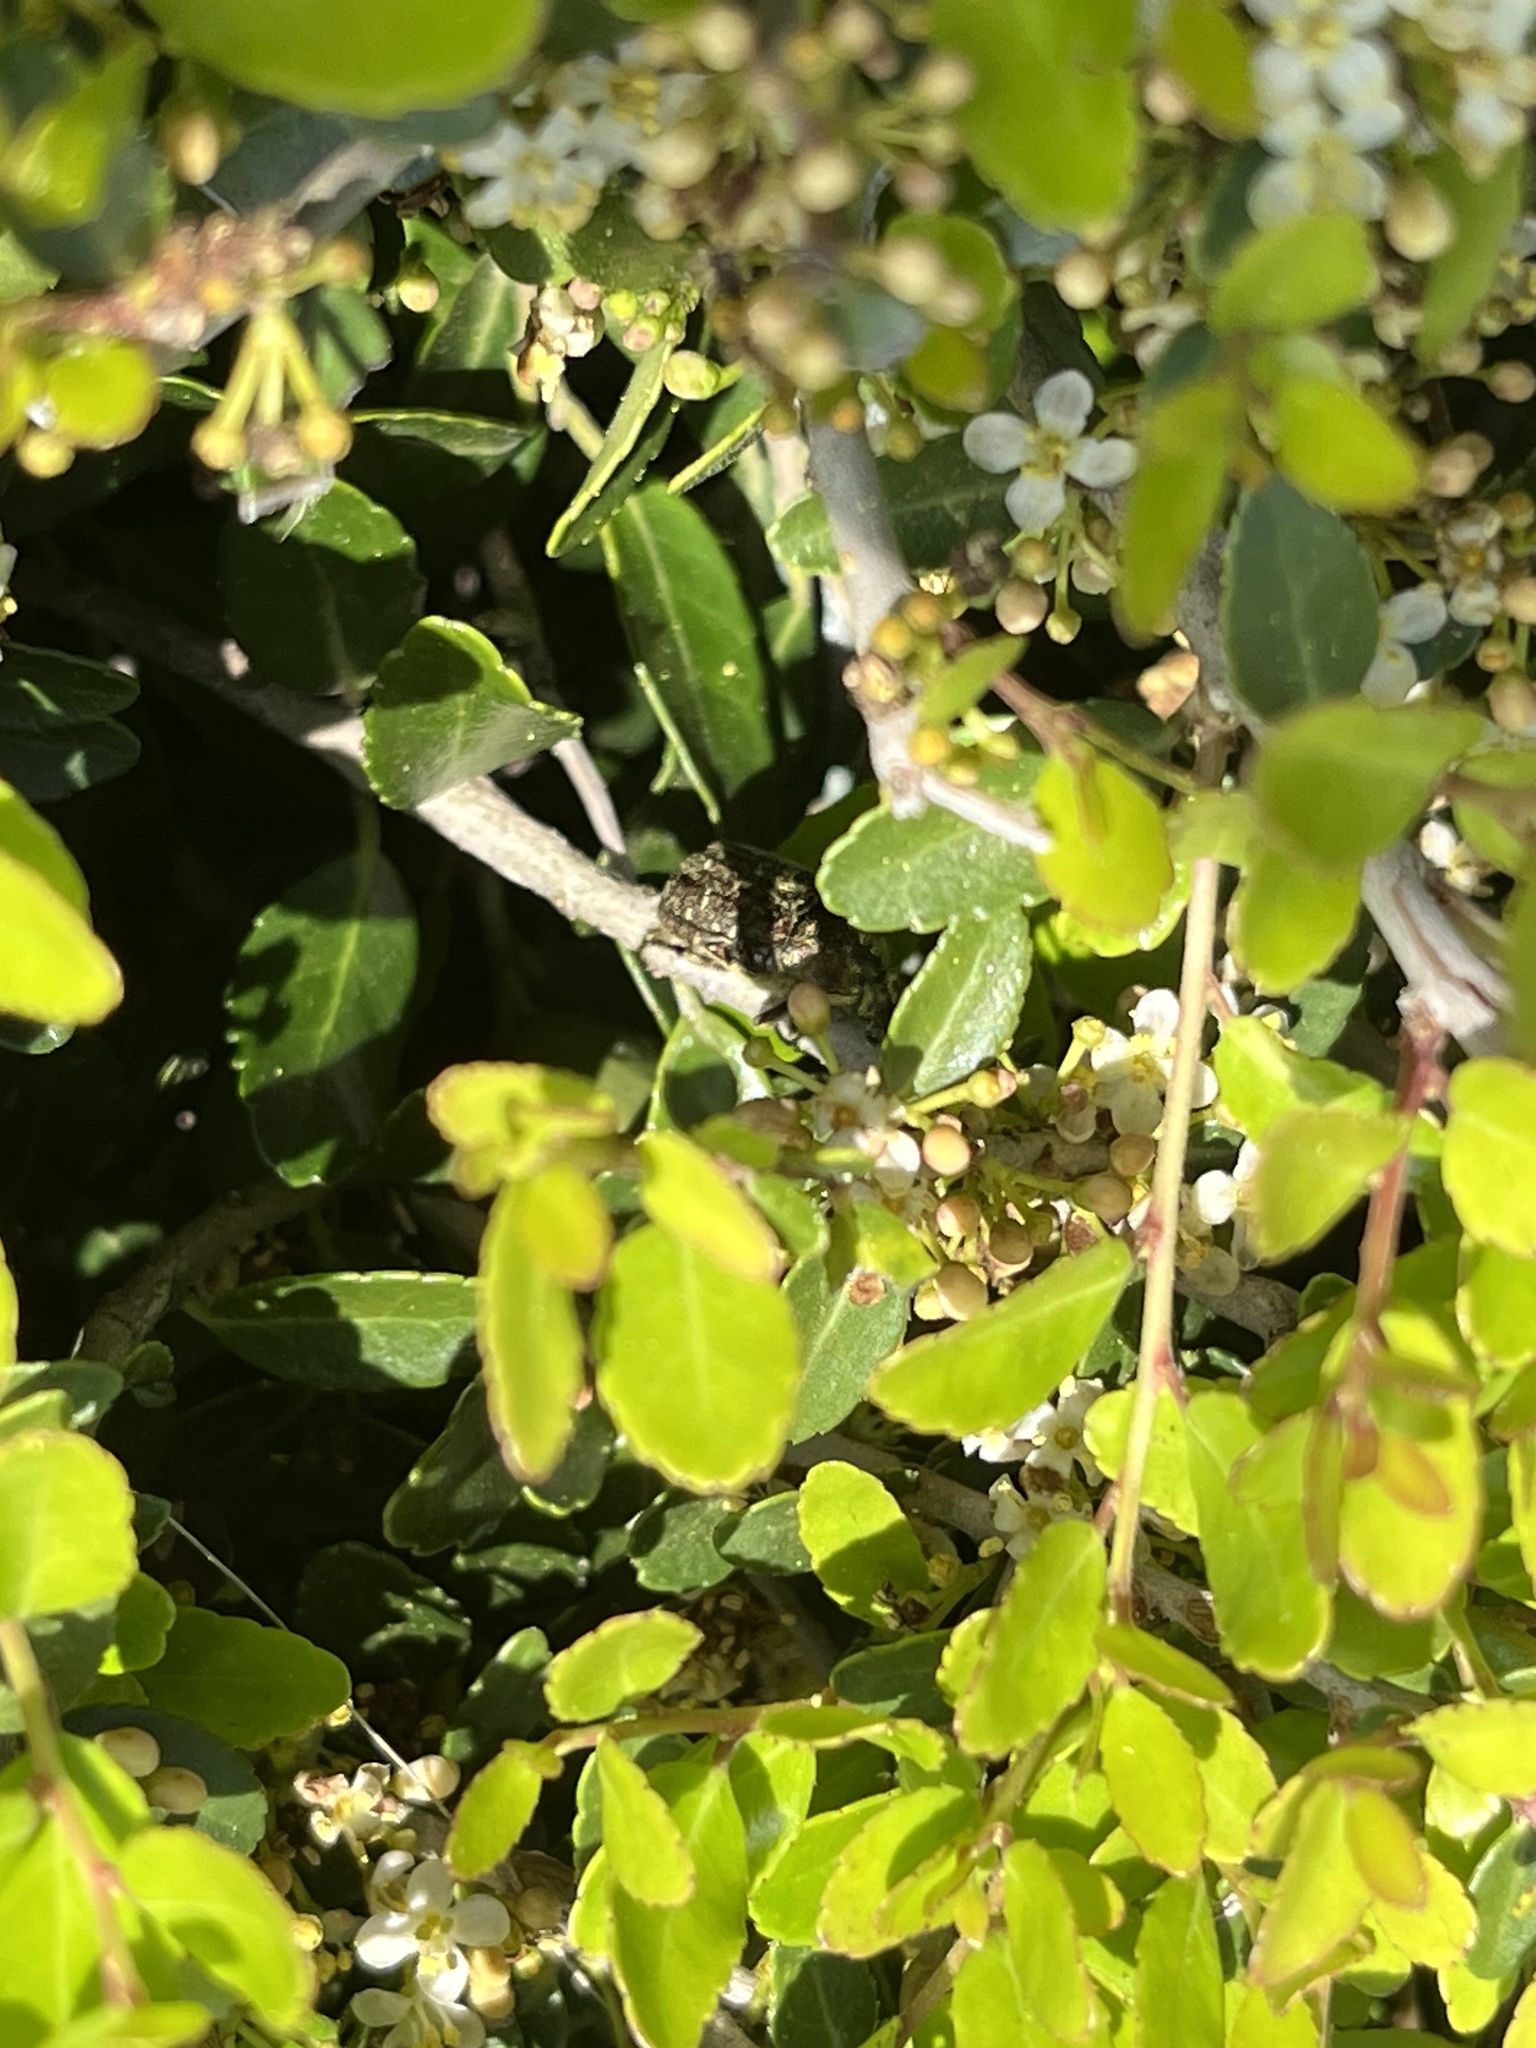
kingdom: Animalia
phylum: Arthropoda
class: Insecta
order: Coleoptera
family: Scarabaeidae
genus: Euphoria
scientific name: Euphoria sepulcralis
